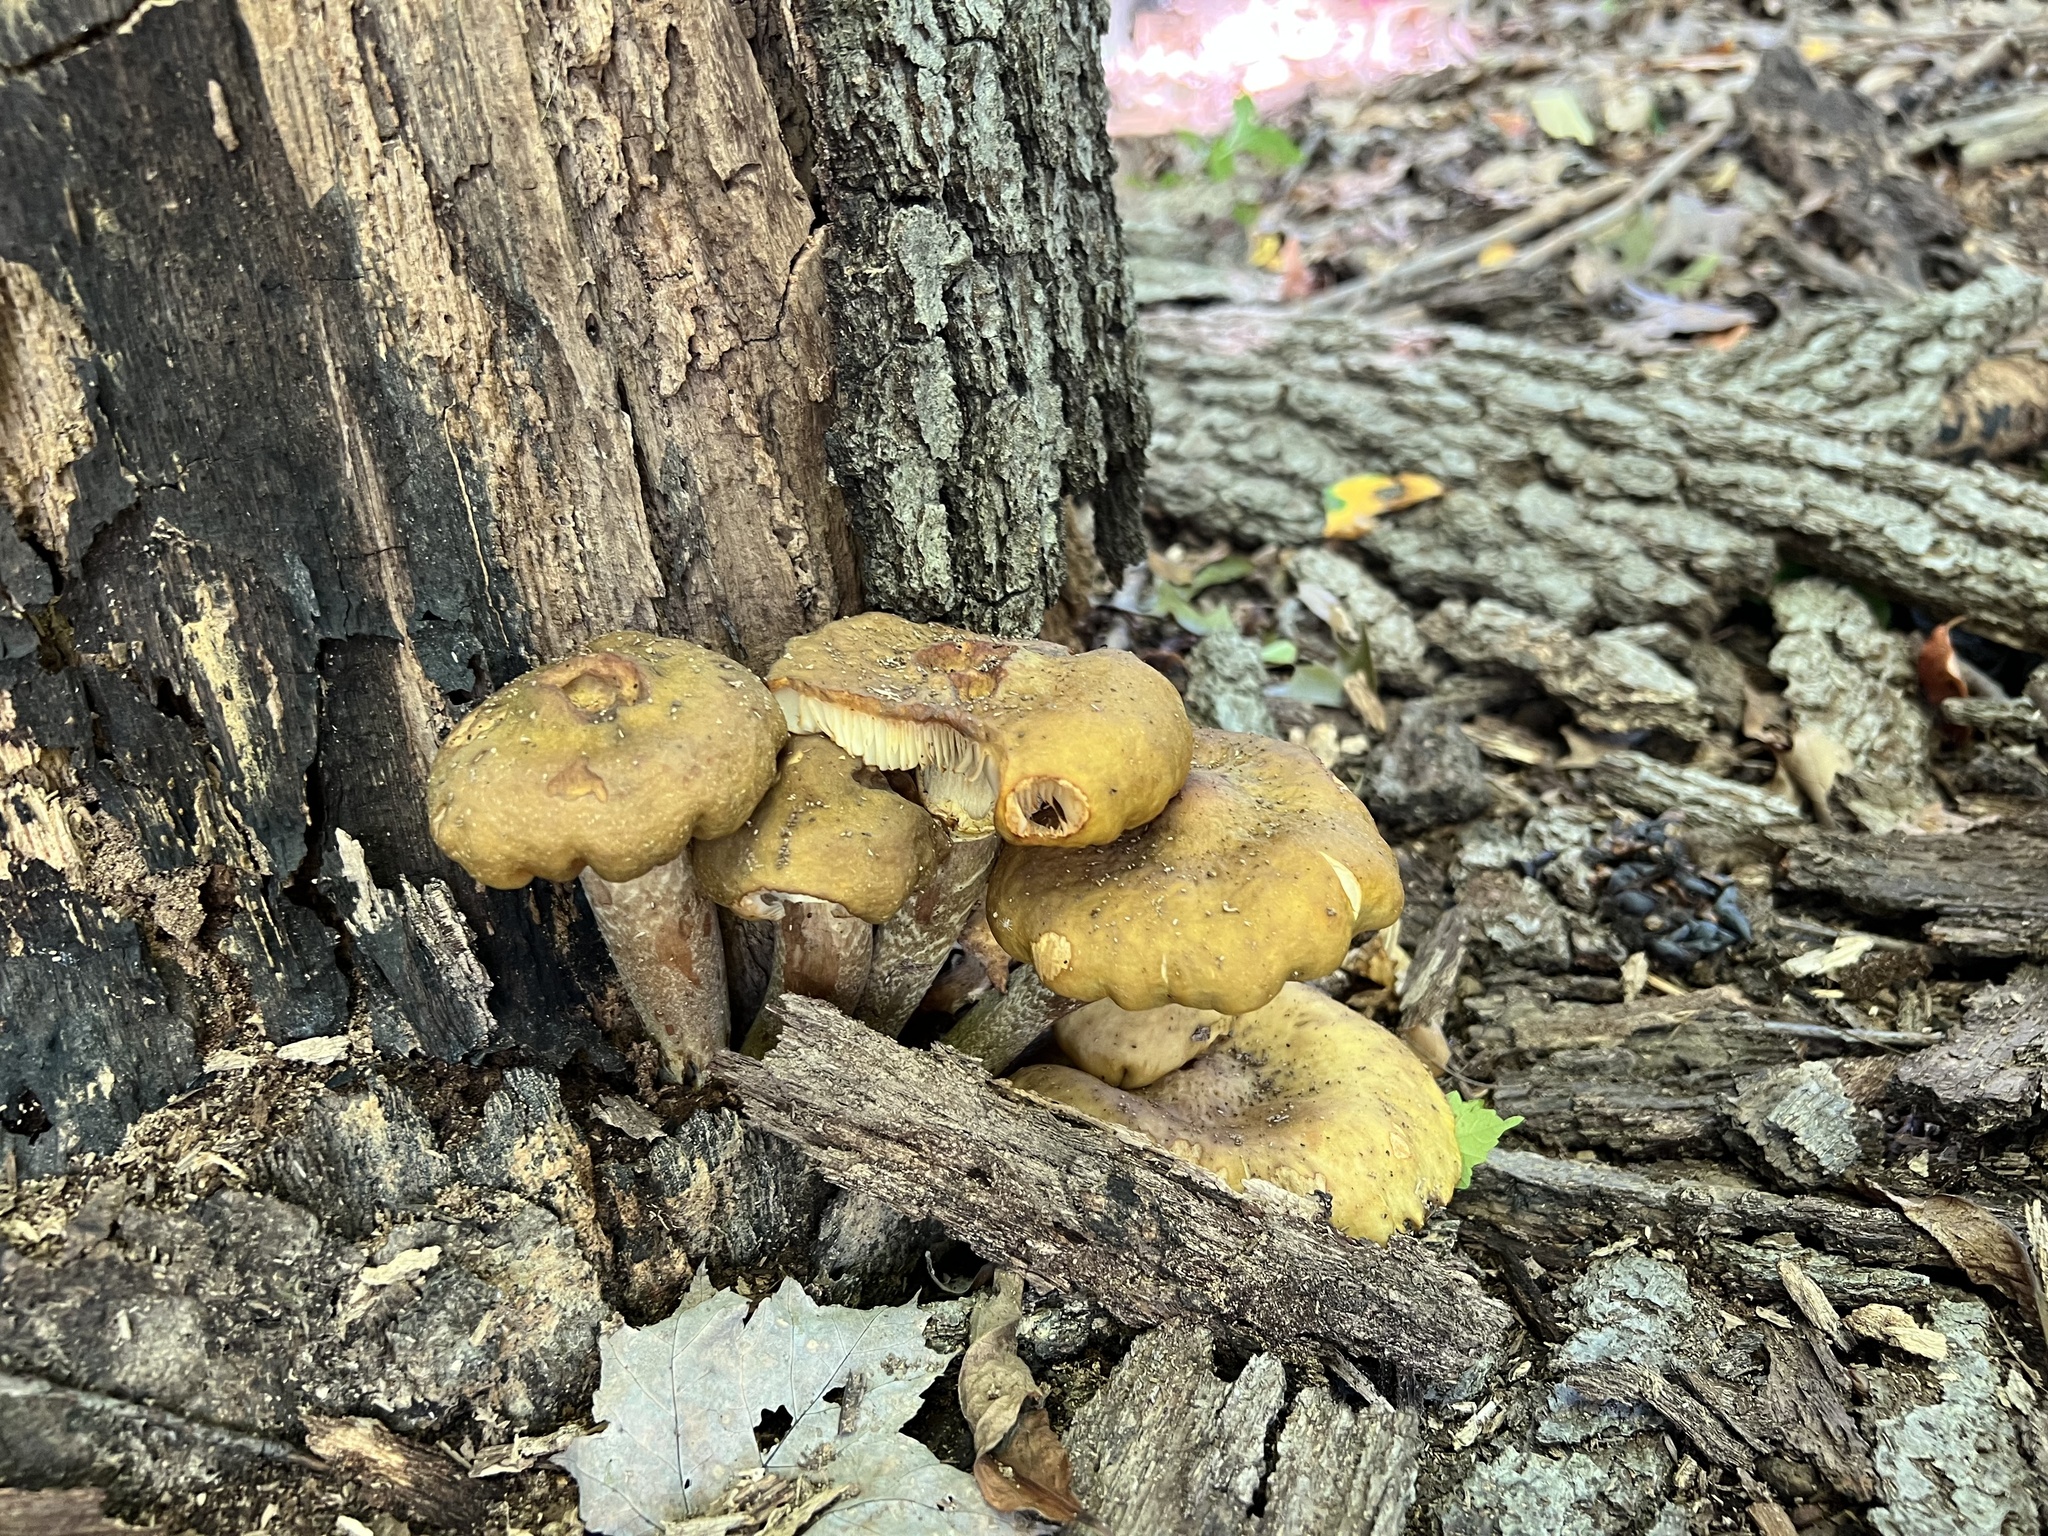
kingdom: Fungi
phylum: Basidiomycota
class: Agaricomycetes
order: Agaricales
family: Physalacriaceae
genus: Armillaria
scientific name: Armillaria mellea
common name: Honey fungus
